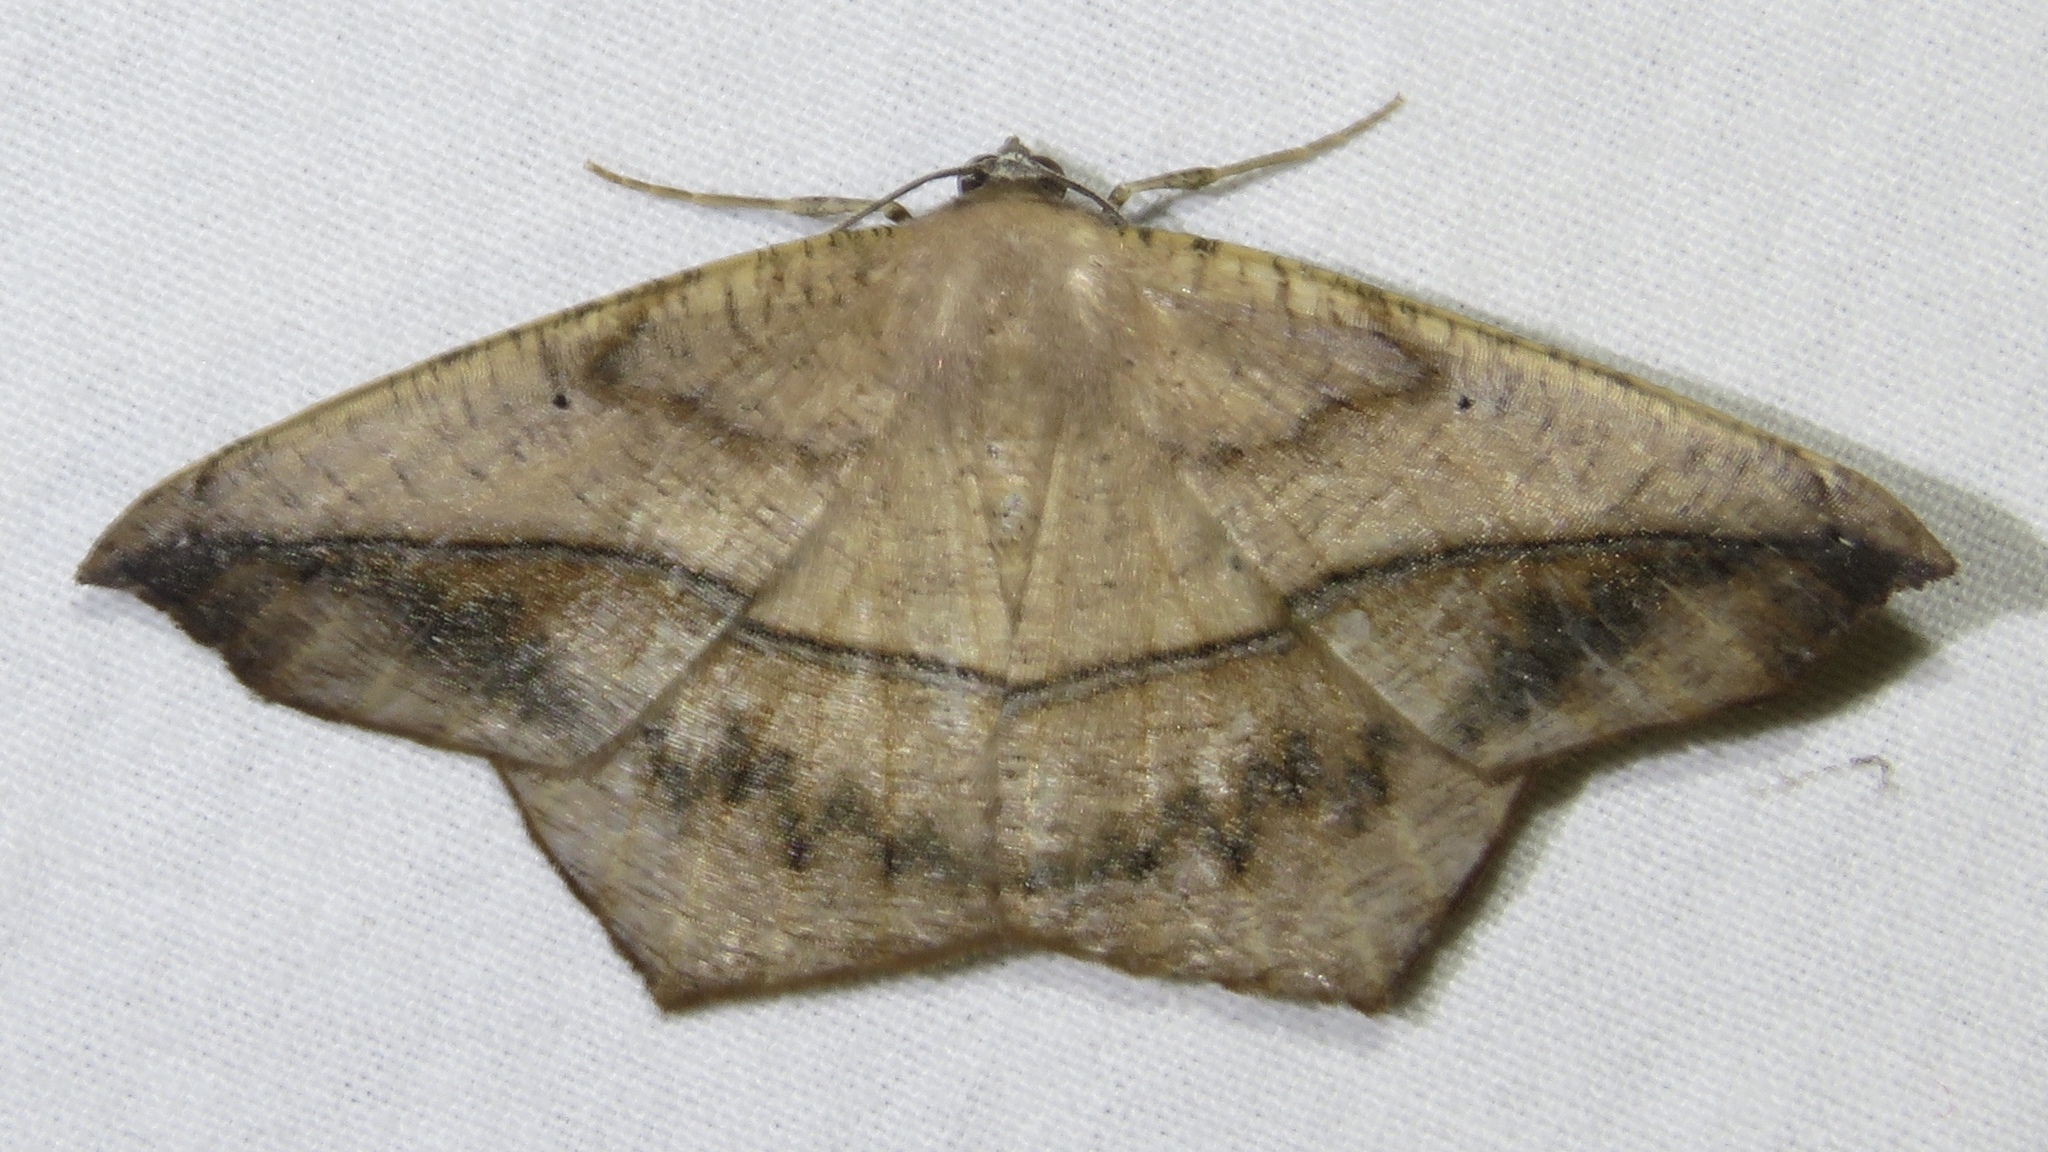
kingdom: Animalia
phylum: Arthropoda
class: Insecta
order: Lepidoptera
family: Geometridae
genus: Prochoerodes
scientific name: Prochoerodes lineola
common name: Large maple spanworm
